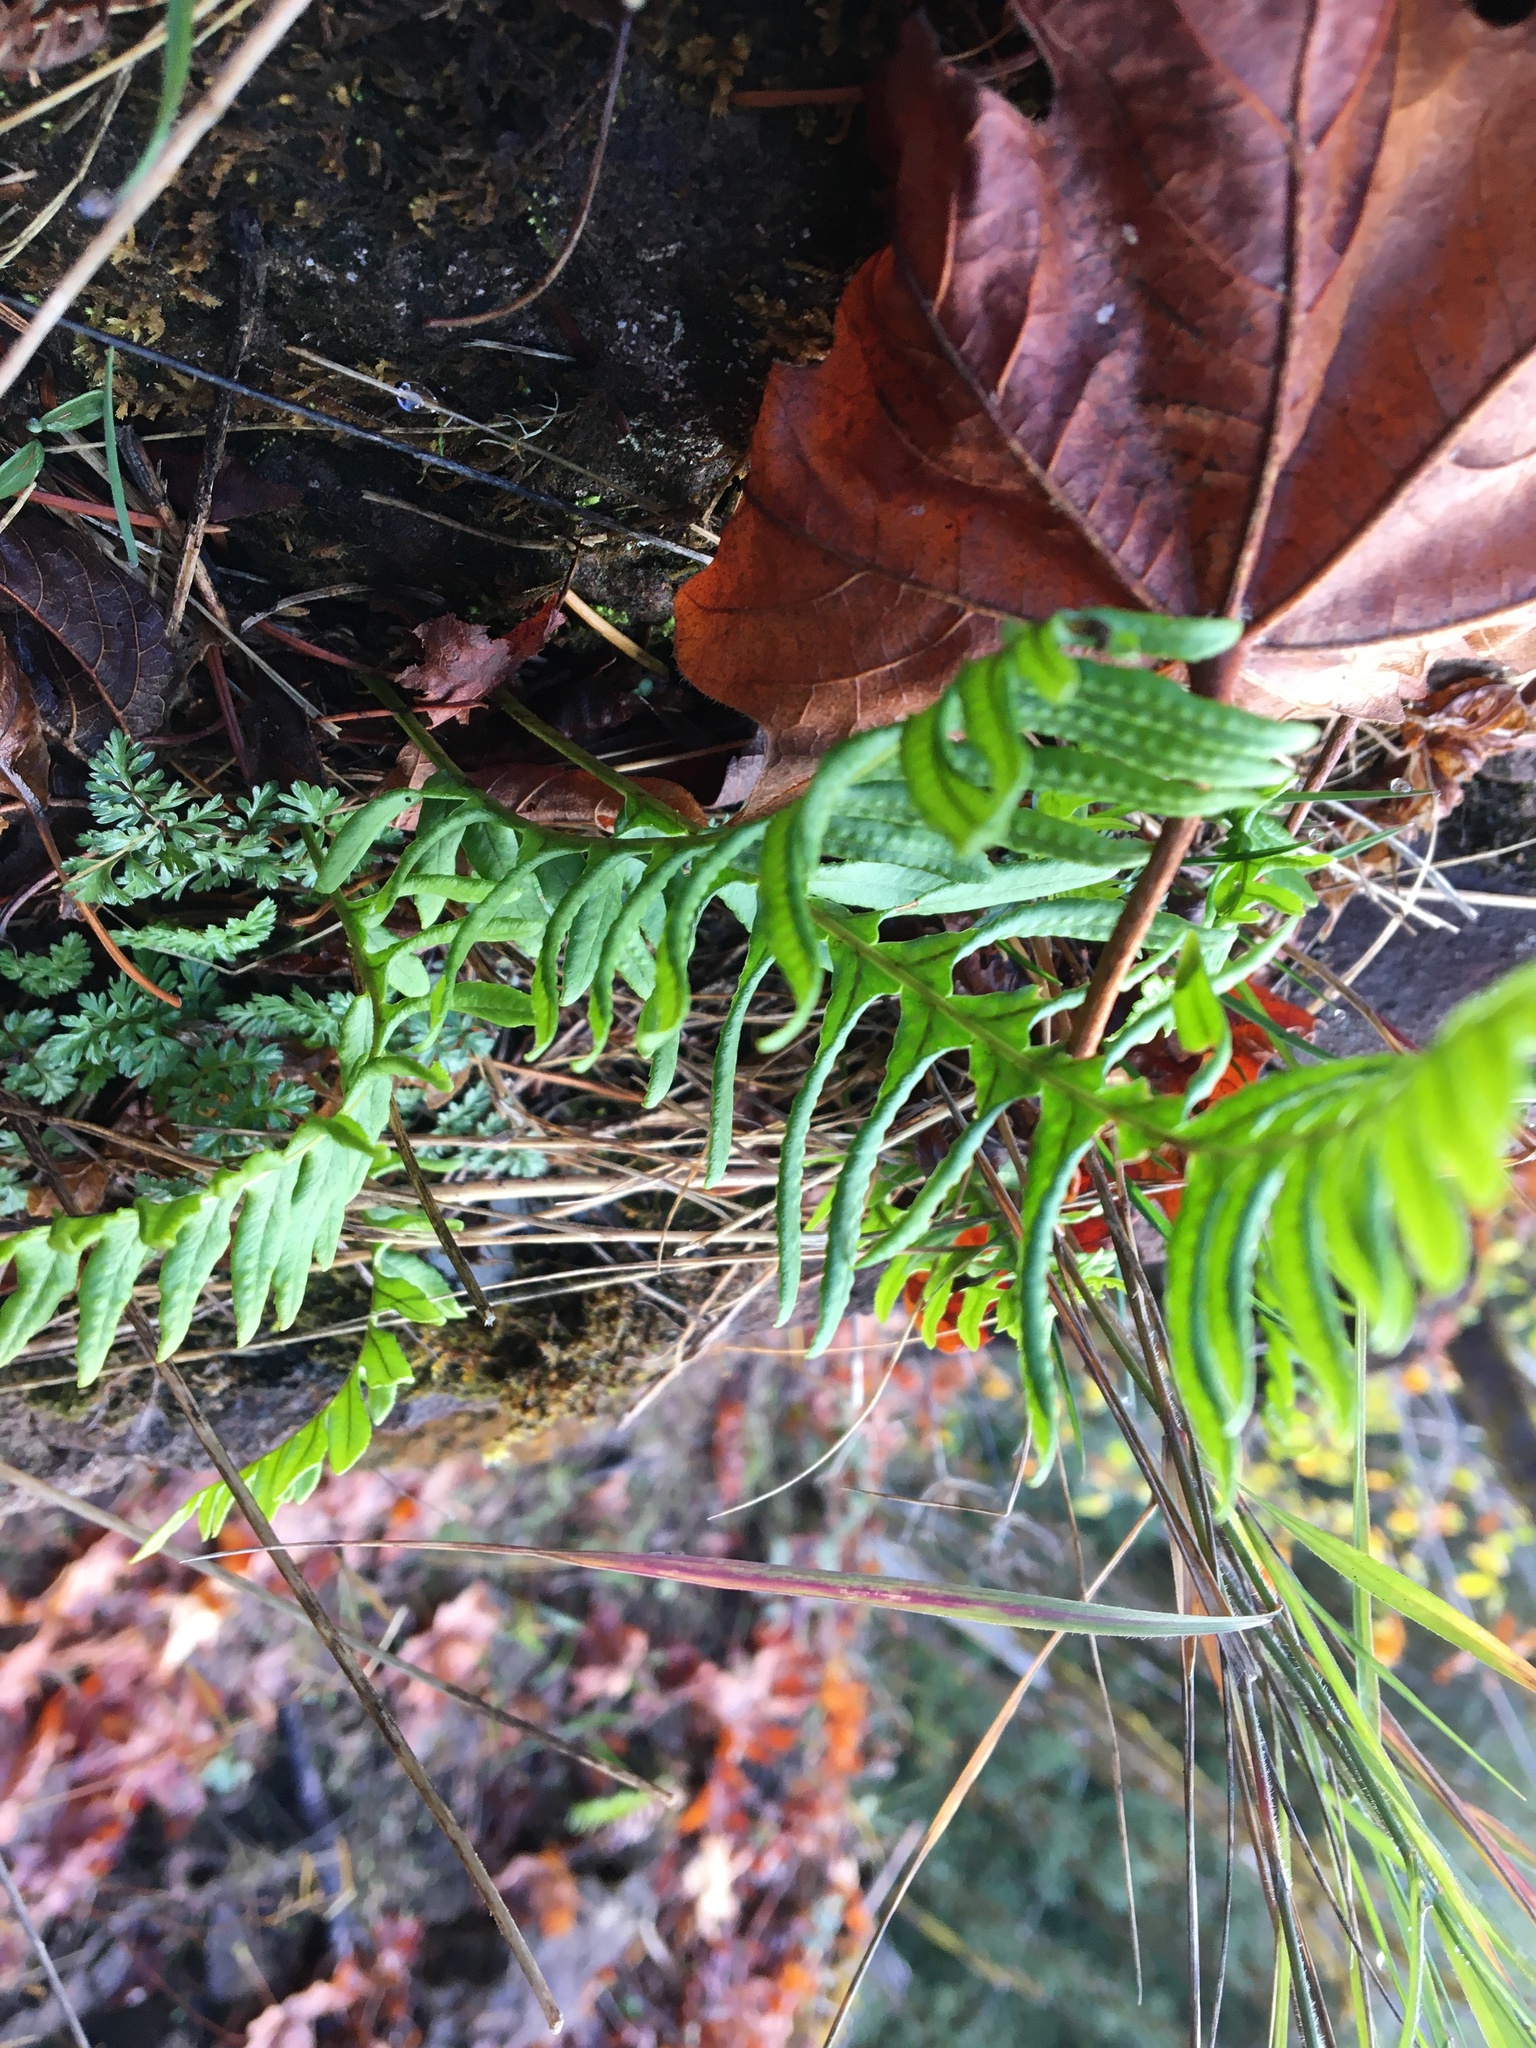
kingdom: Plantae
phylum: Tracheophyta
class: Polypodiopsida
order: Polypodiales
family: Polypodiaceae
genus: Polypodium
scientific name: Polypodium glycyrrhiza
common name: Licorice fern
